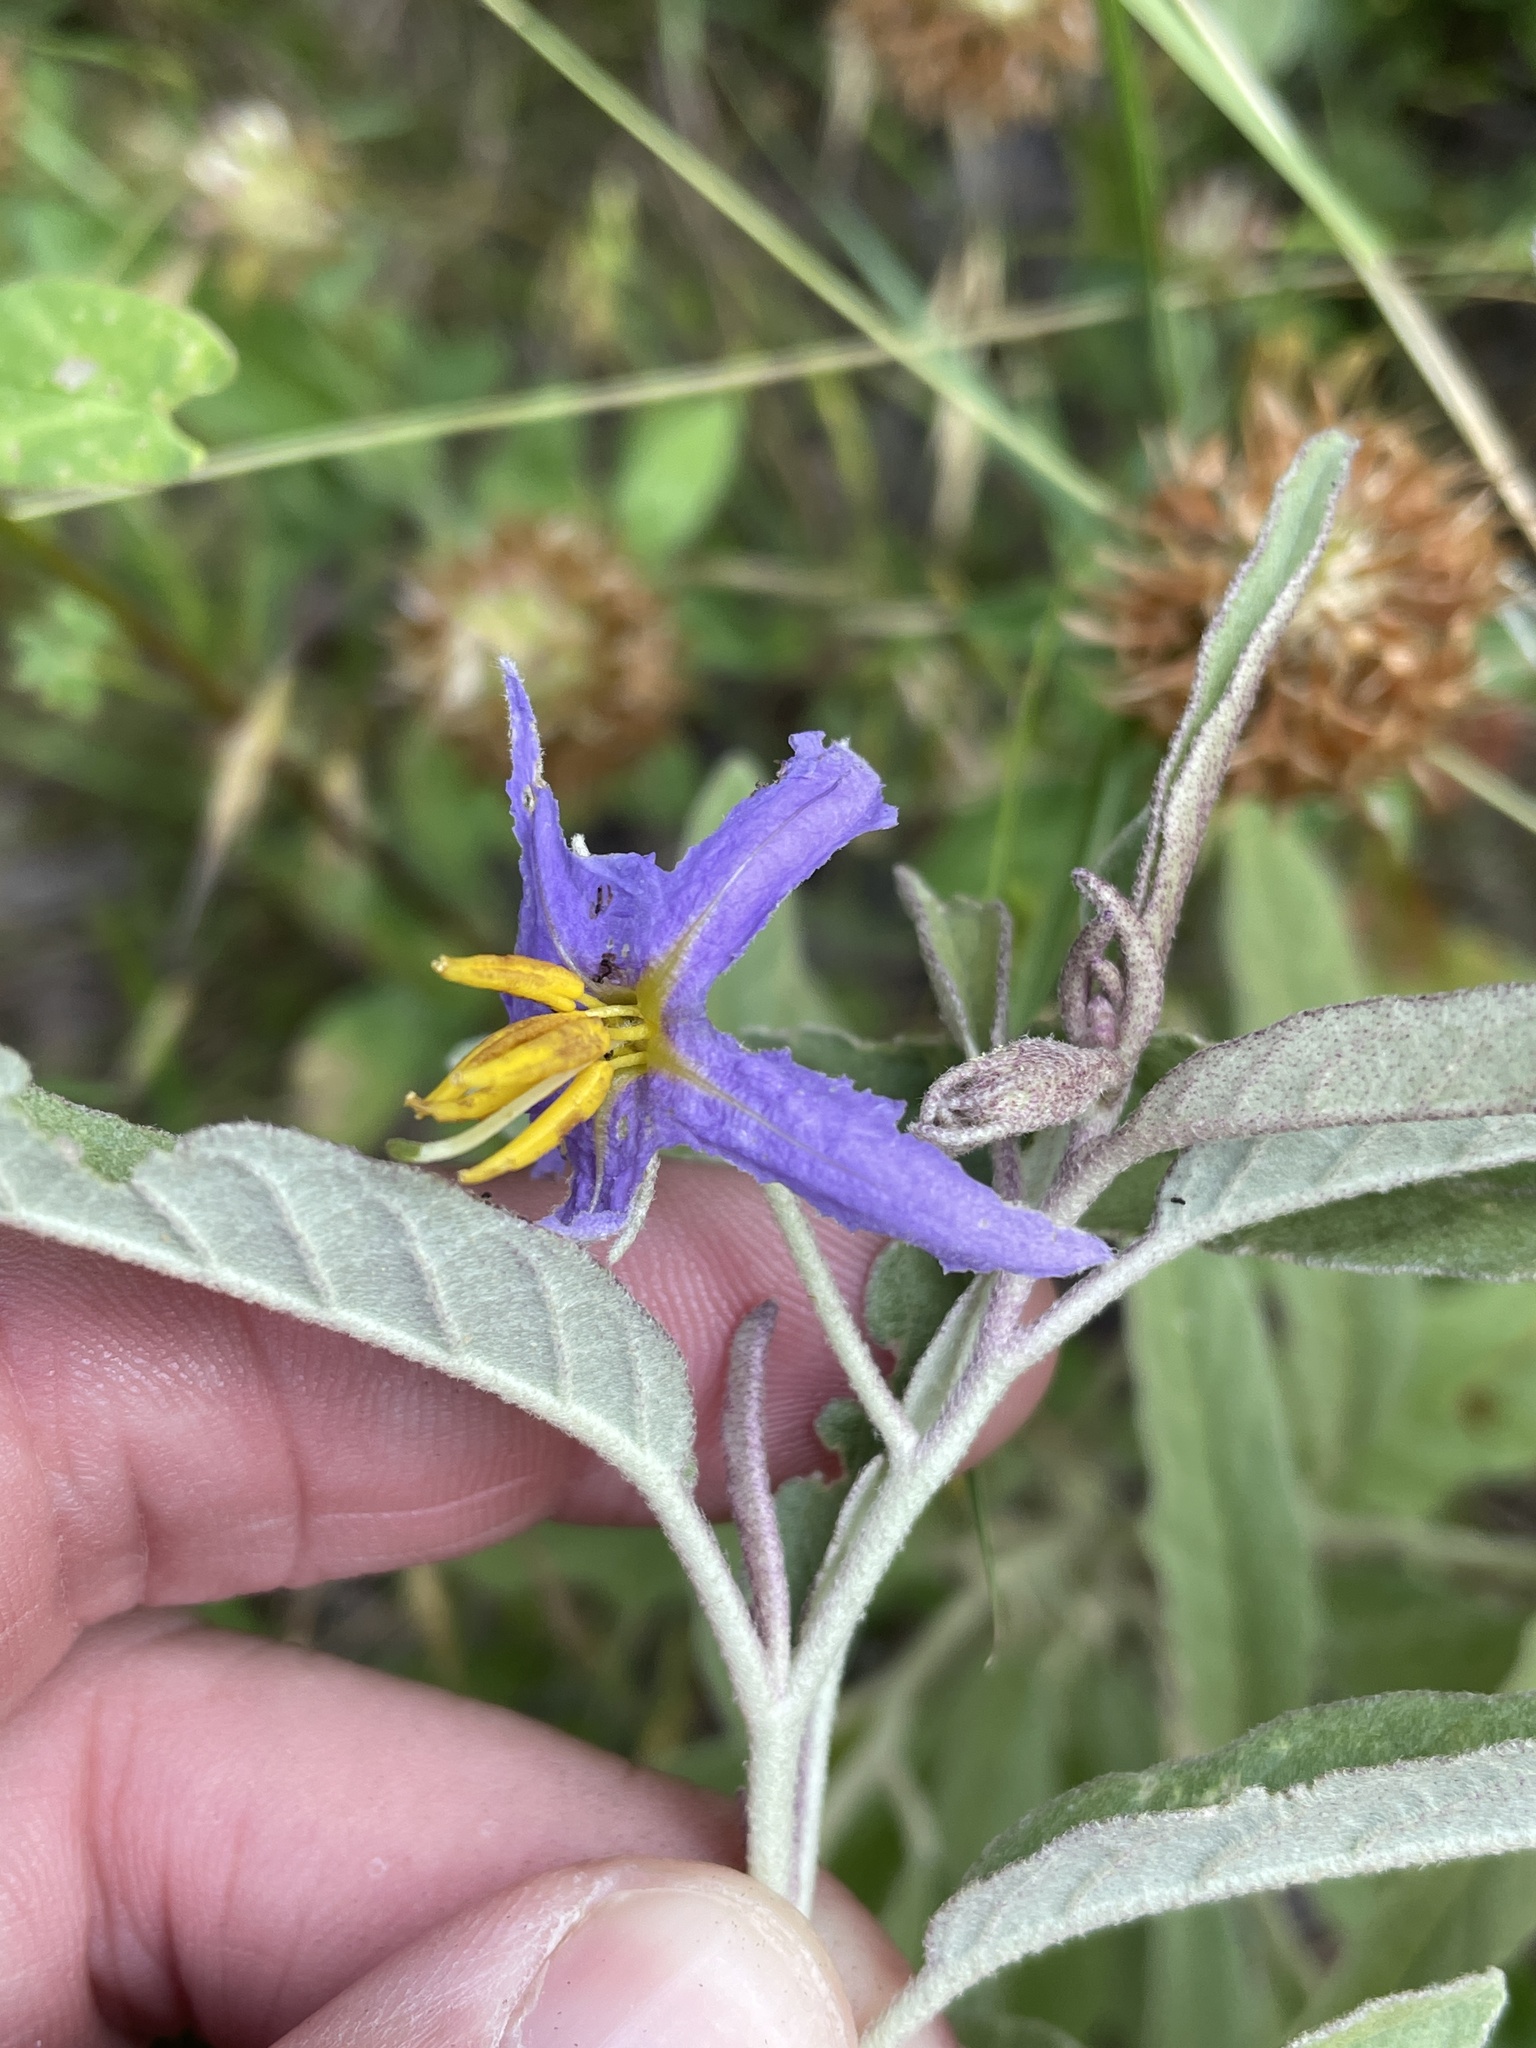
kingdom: Plantae
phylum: Tracheophyta
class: Magnoliopsida
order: Solanales
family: Solanaceae
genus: Solanum
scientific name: Solanum elaeagnifolium
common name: Silverleaf nightshade
